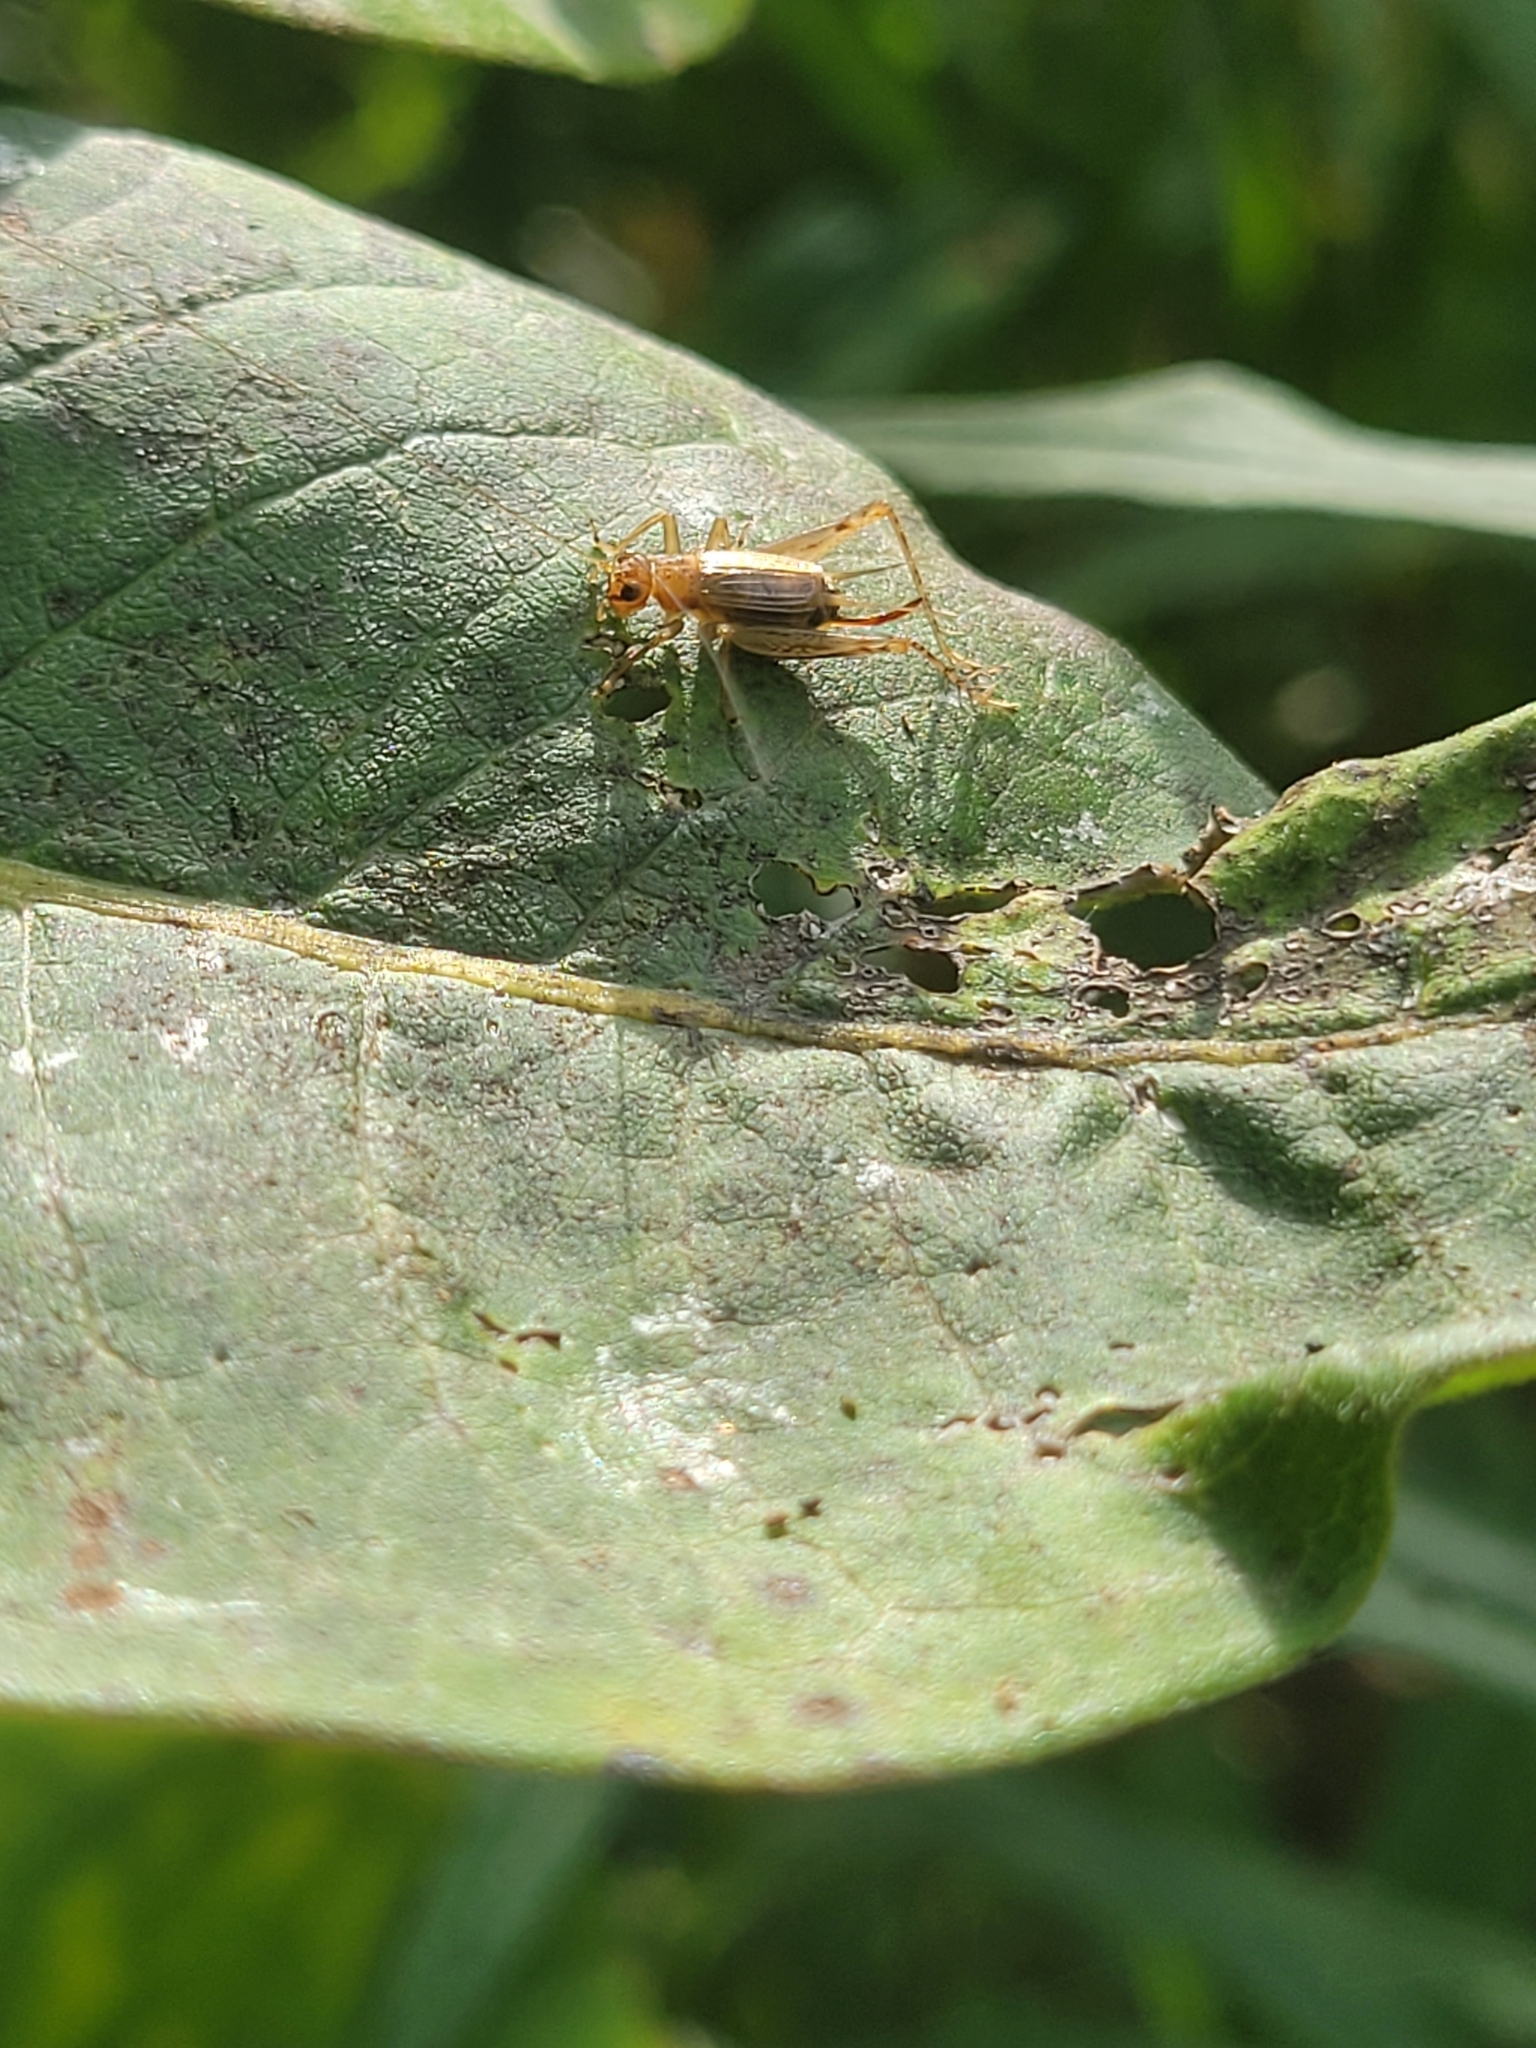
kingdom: Animalia
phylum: Arthropoda
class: Insecta
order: Orthoptera
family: Trigonidiidae
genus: Anaxipha
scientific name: Anaxipha exigua
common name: Say's bush cricket
